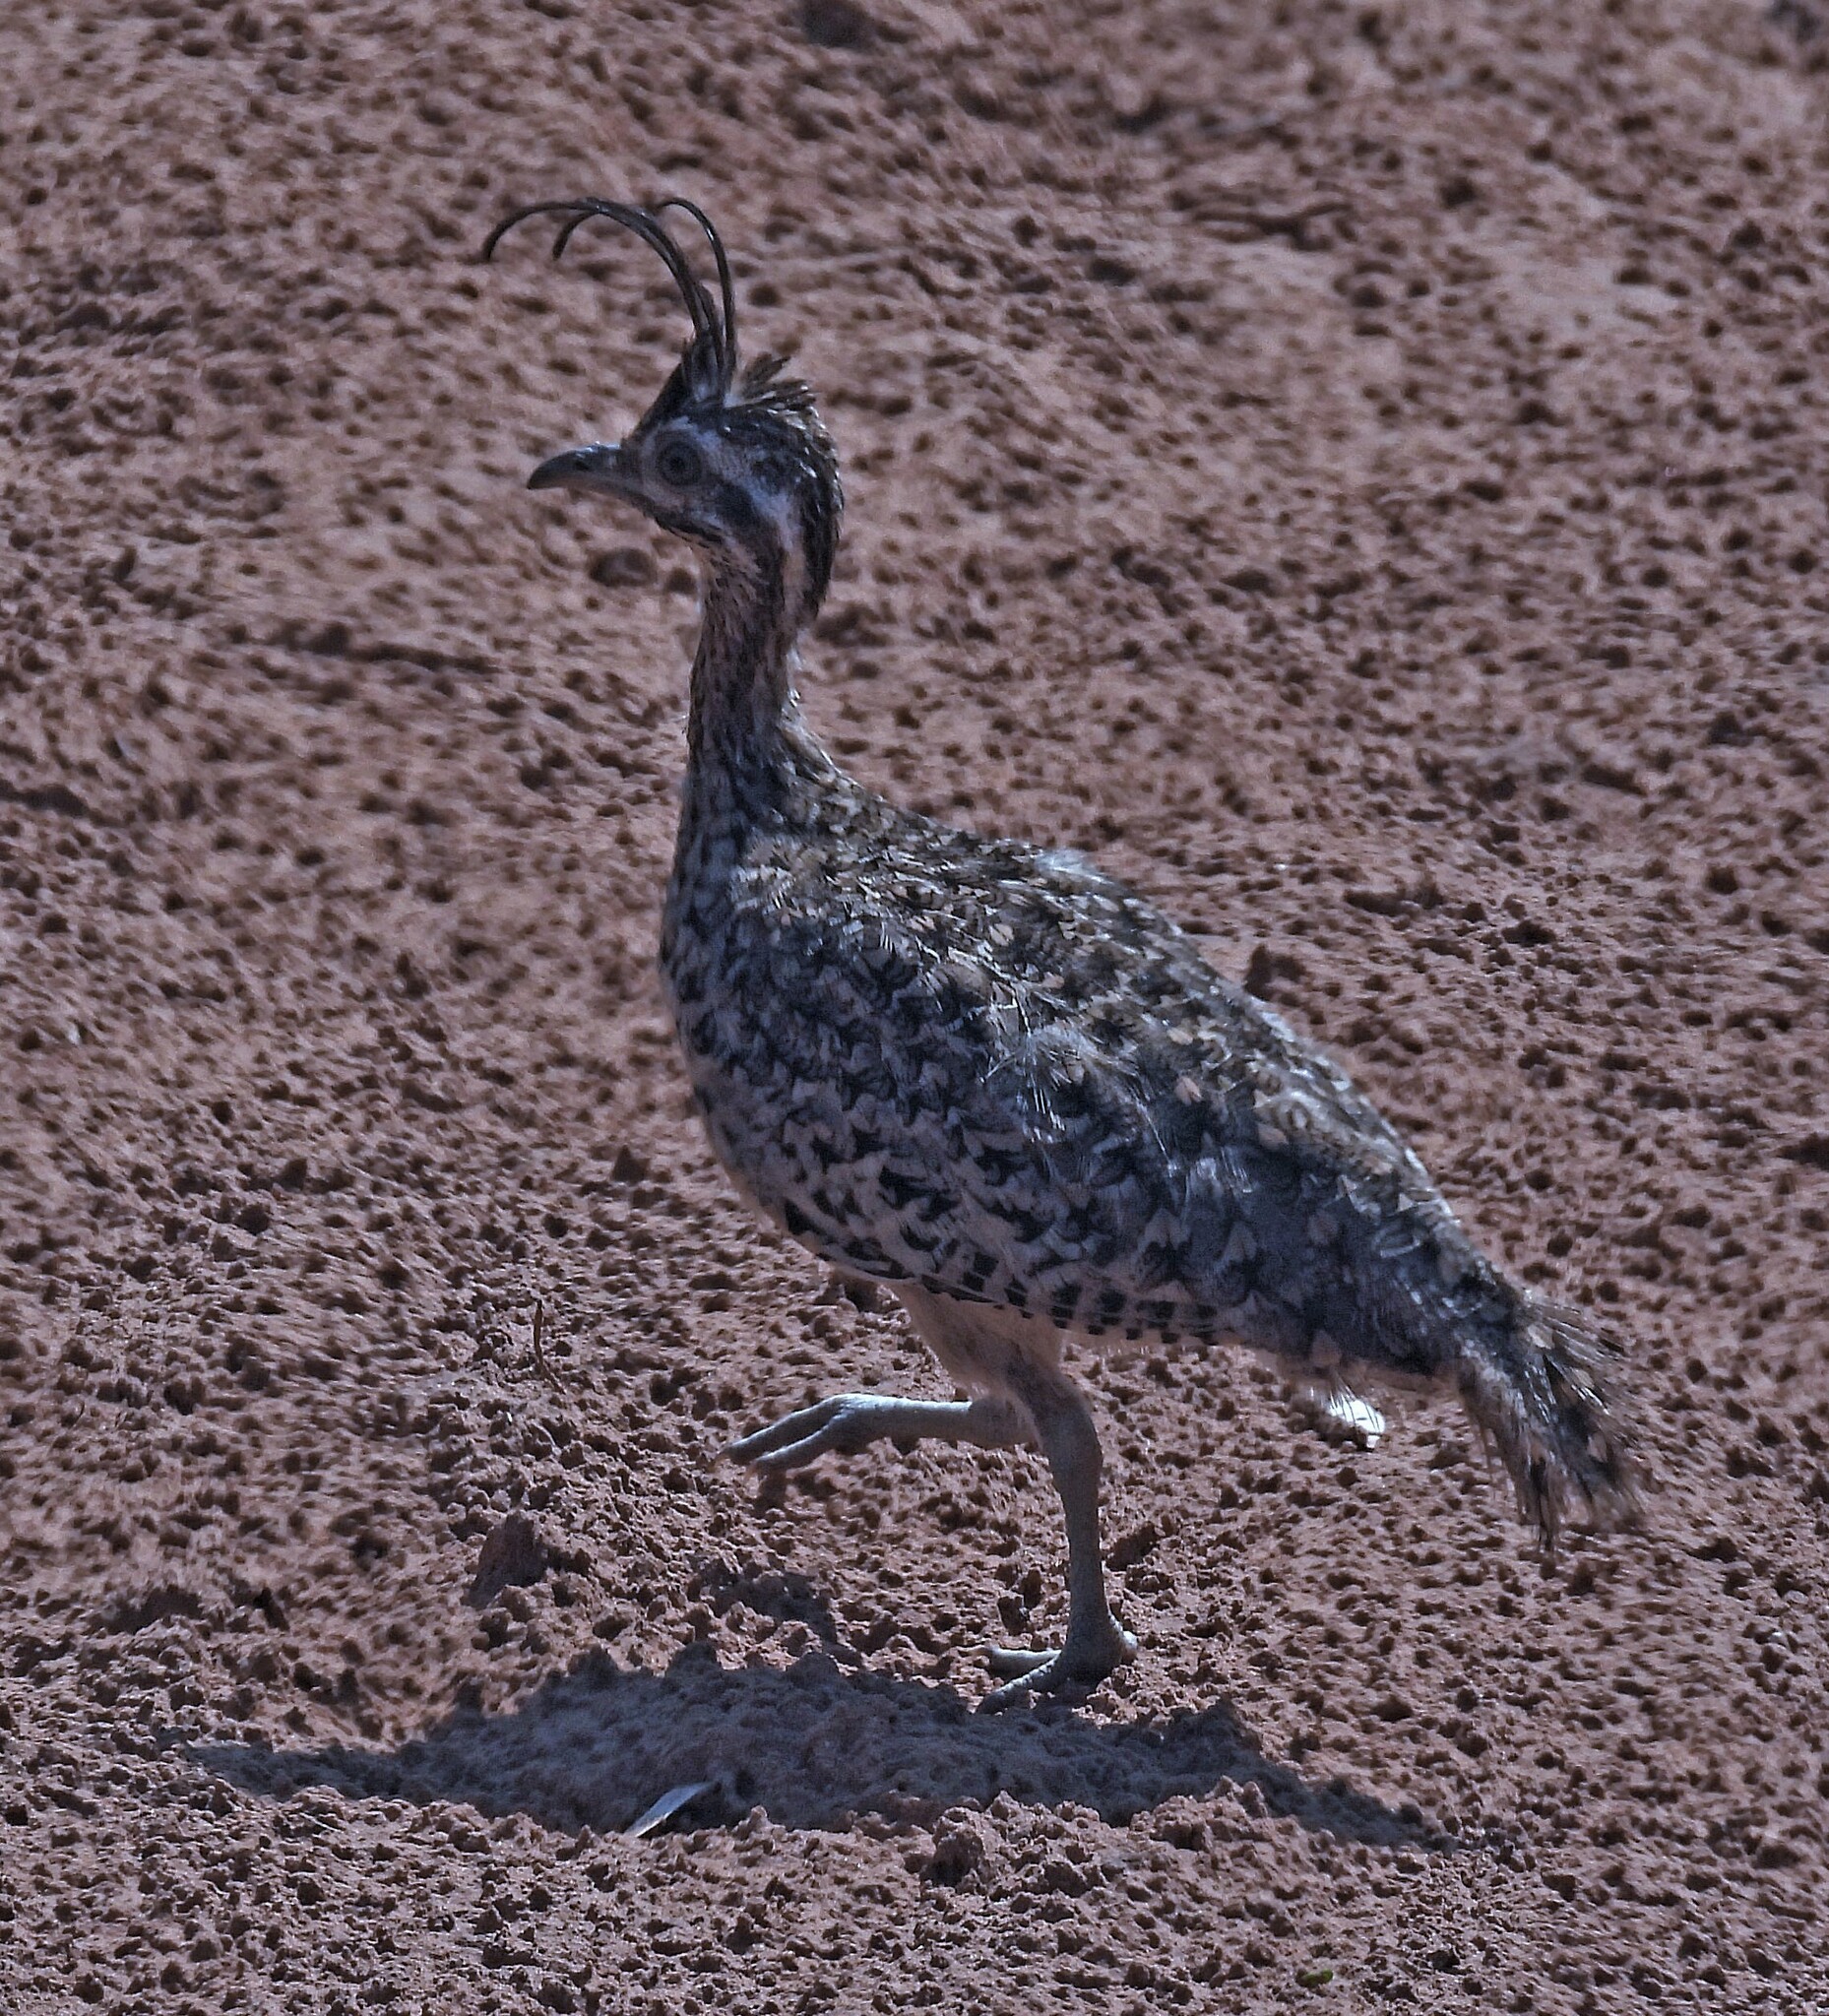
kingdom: Animalia
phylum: Chordata
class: Aves
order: Tinamiformes
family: Tinamidae
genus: Eudromia
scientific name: Eudromia formosa
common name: Quebracho crested tinamou
